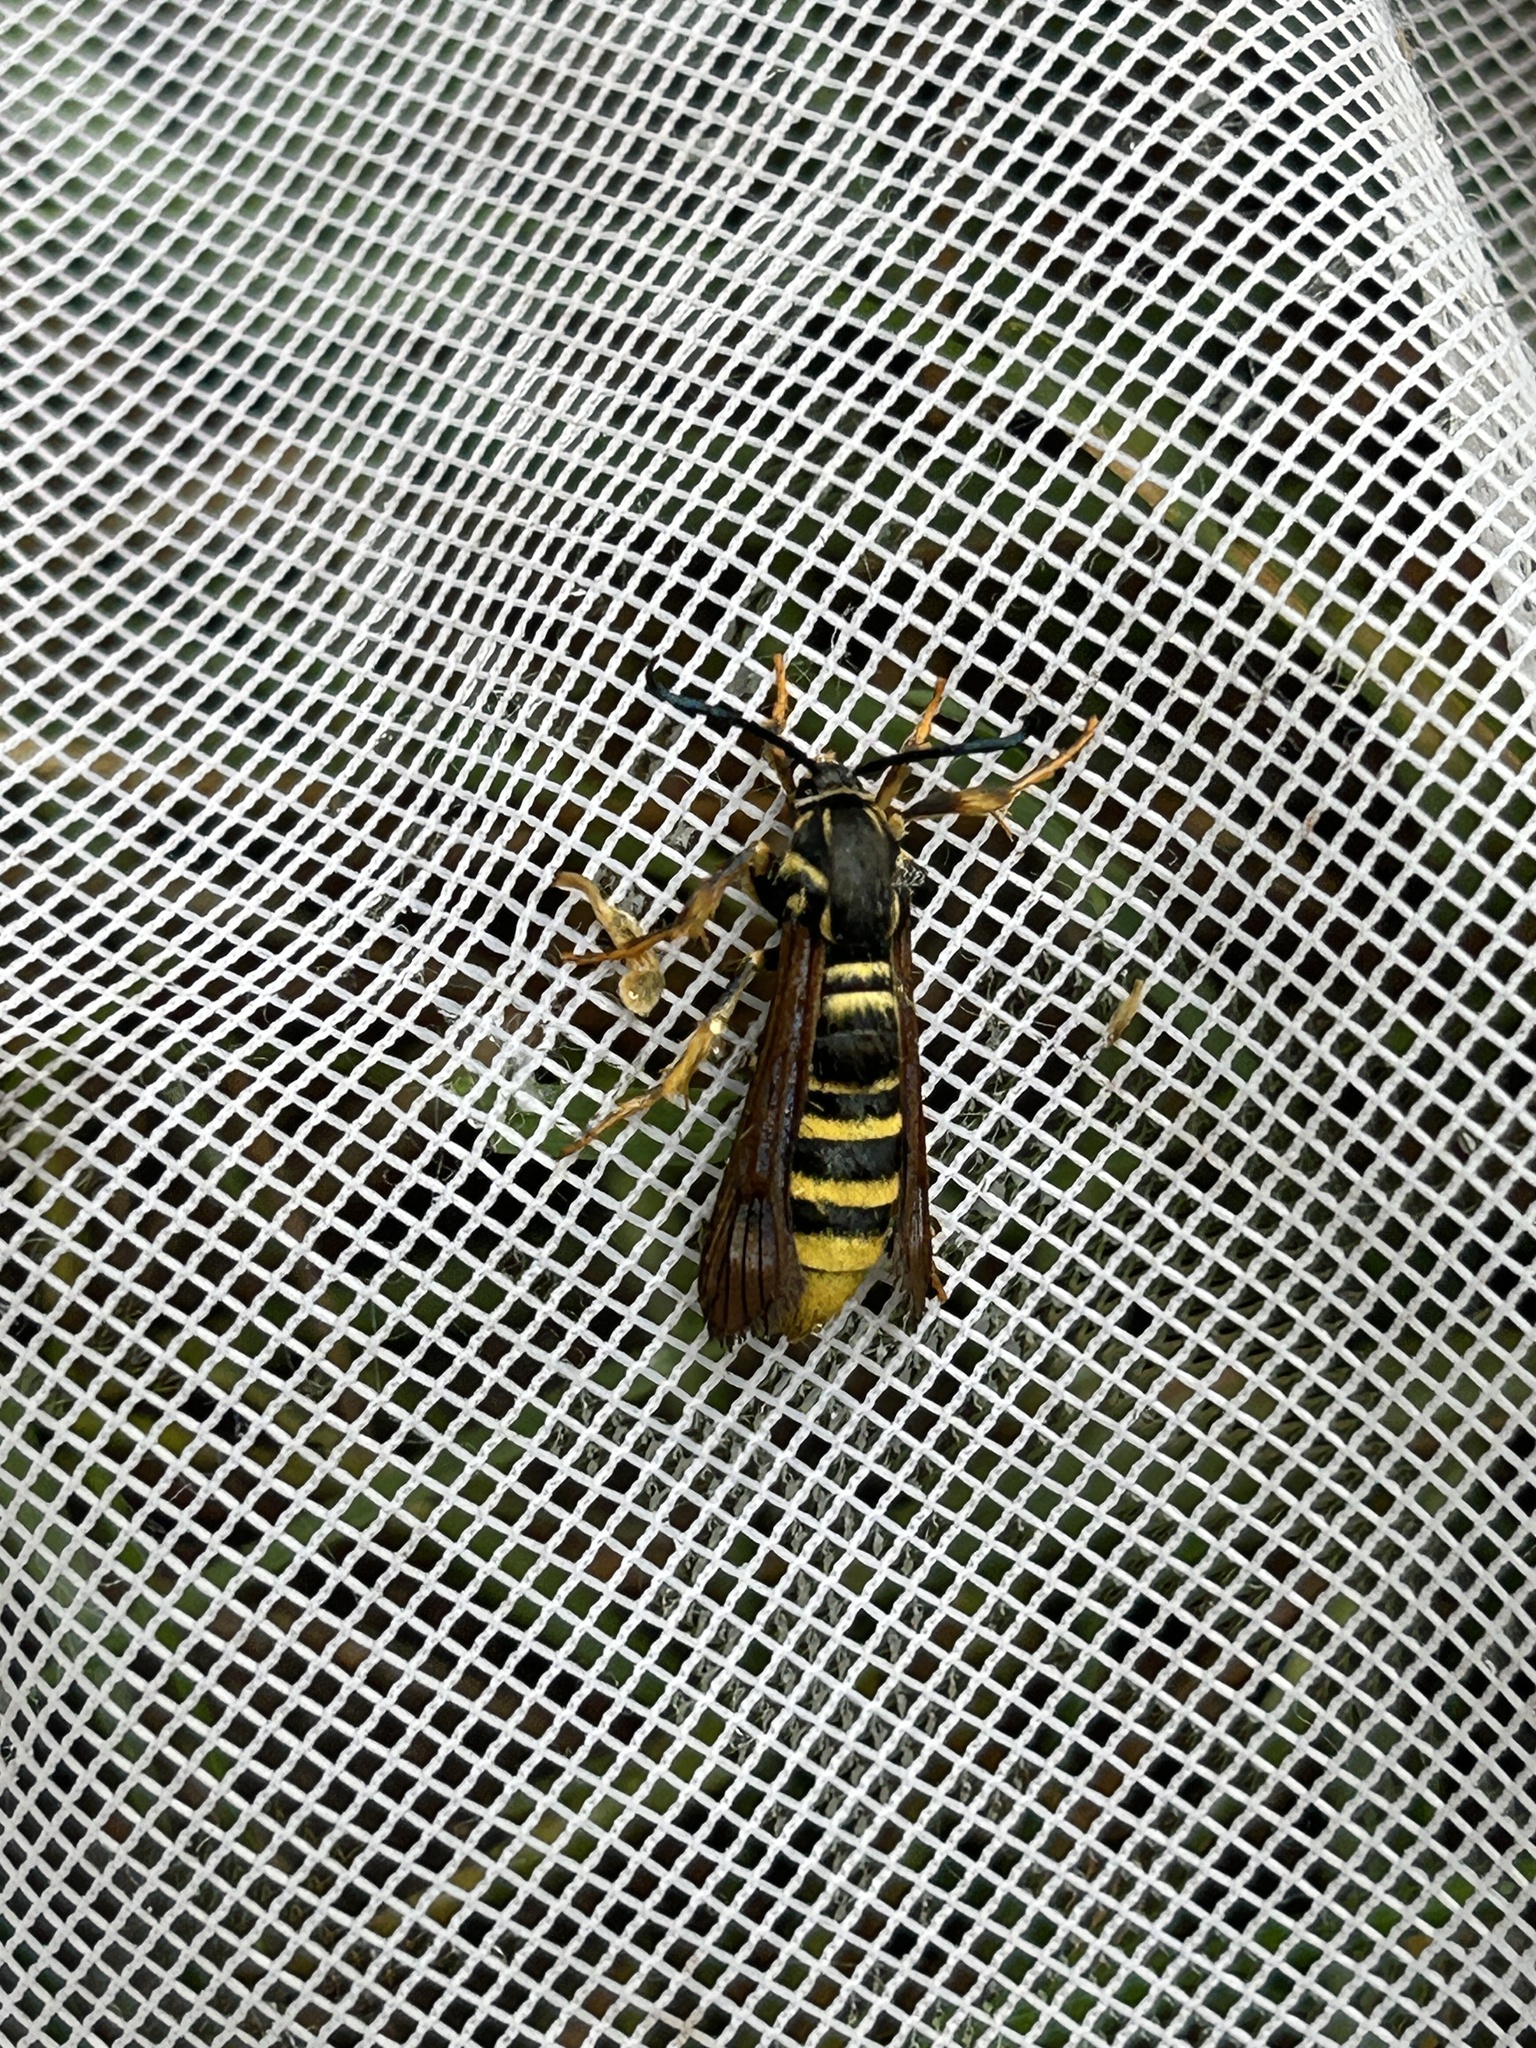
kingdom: Animalia
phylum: Arthropoda
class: Insecta
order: Lepidoptera
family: Sesiidae
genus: Pennisetia
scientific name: Pennisetia marginatum
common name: Raspberry crown borer
